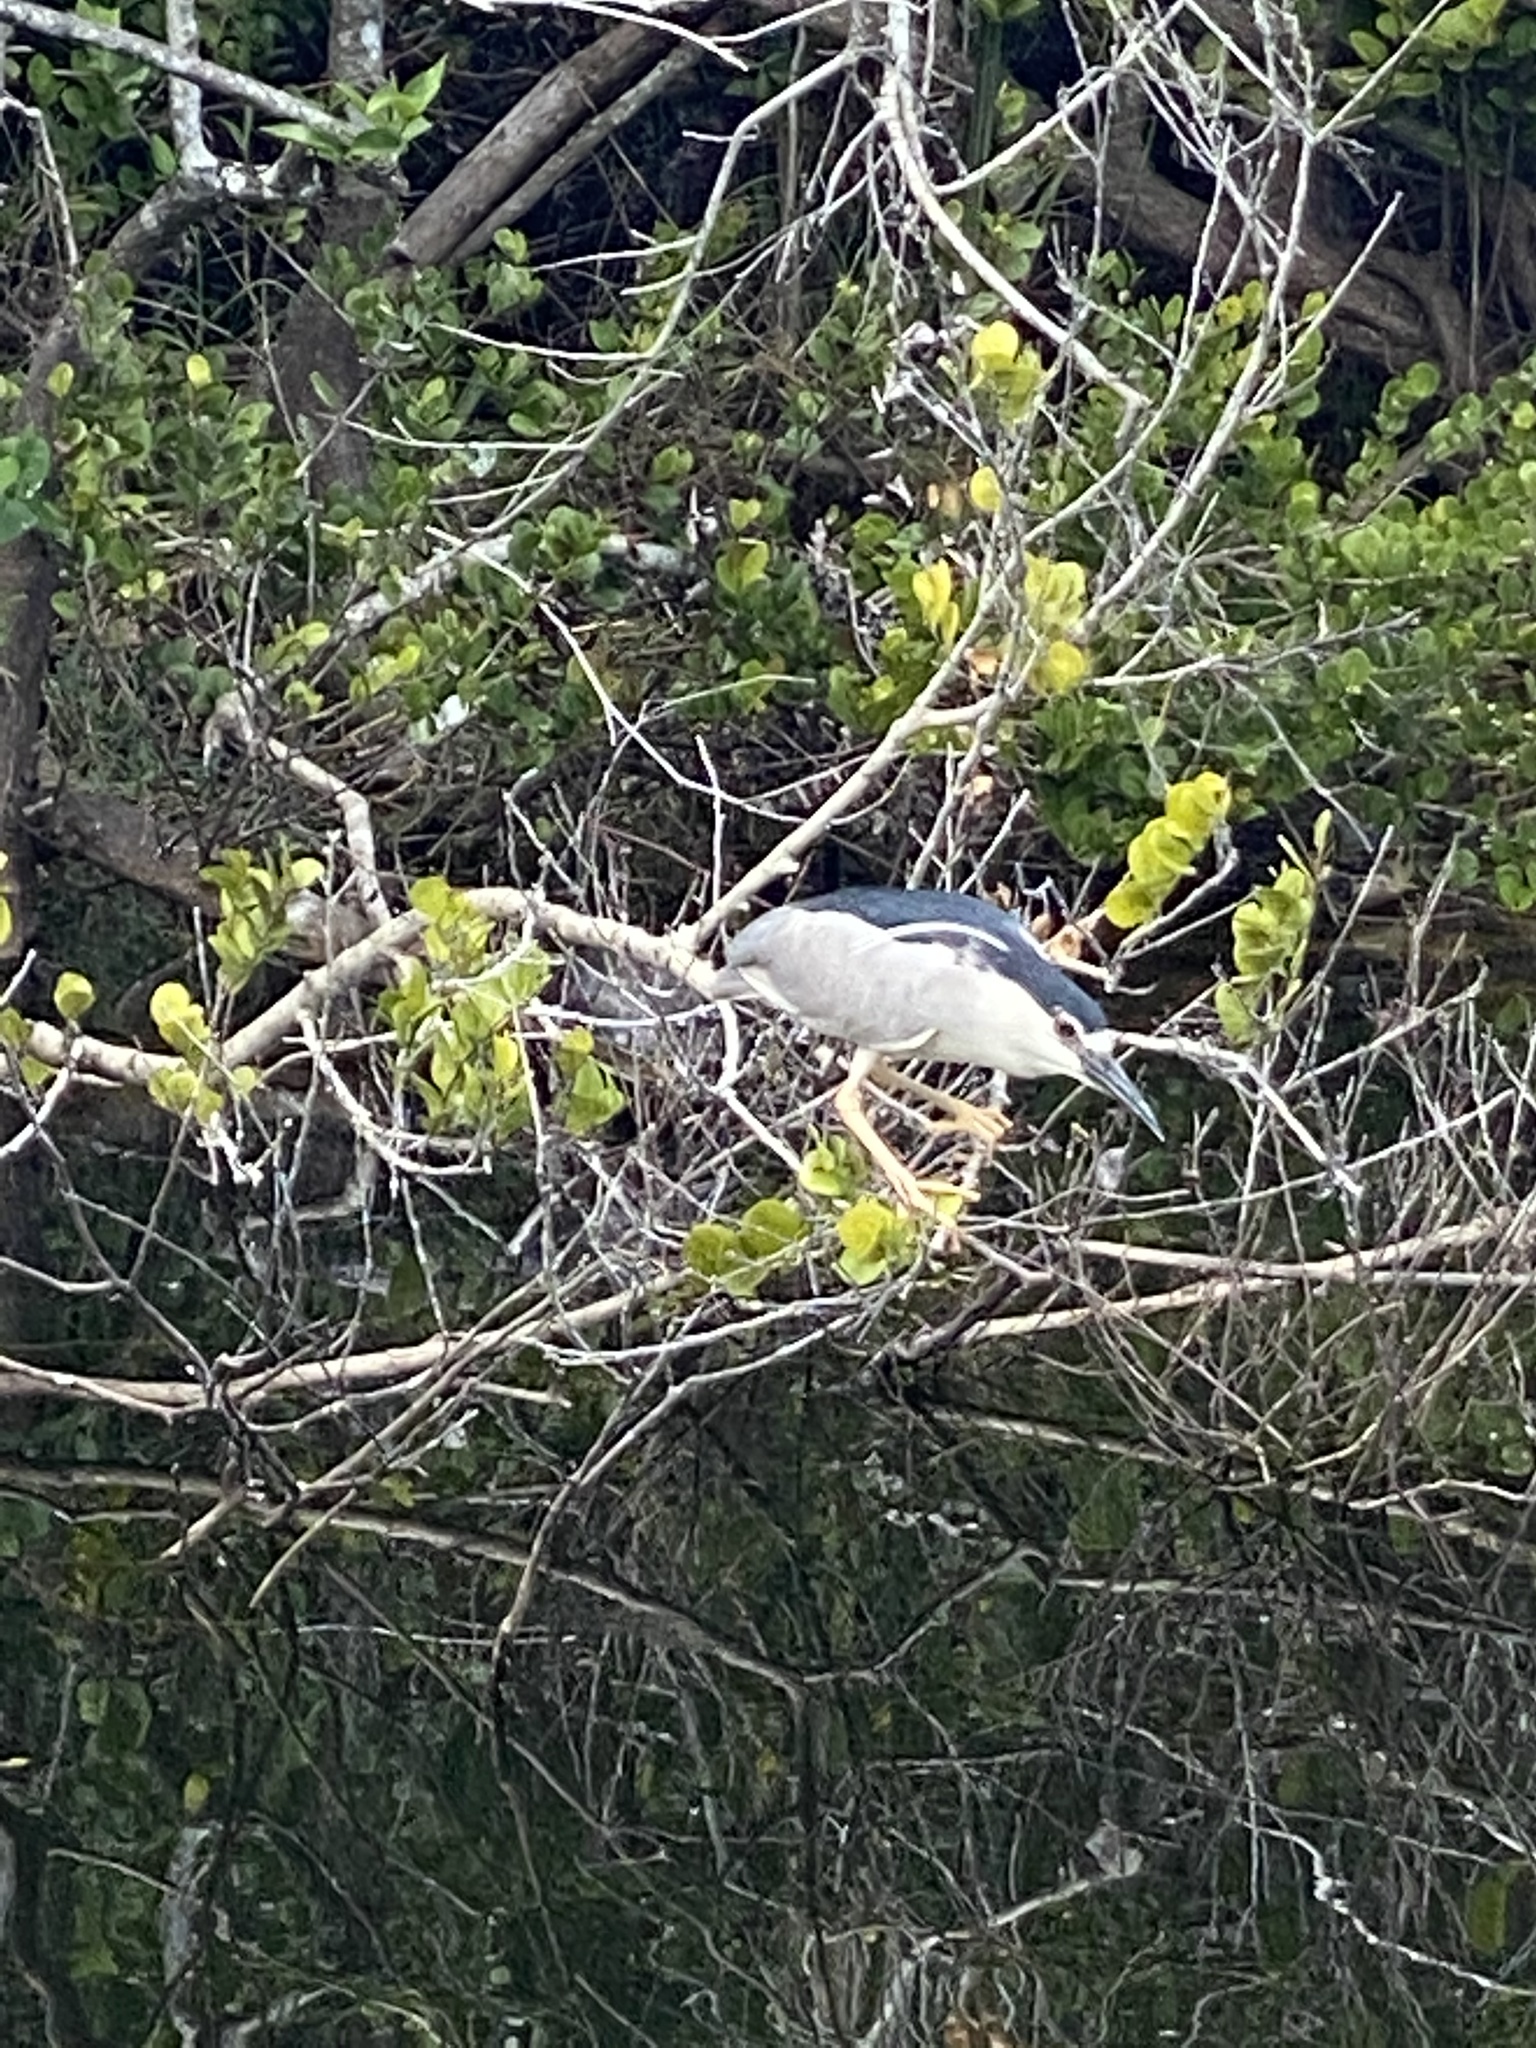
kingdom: Animalia
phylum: Chordata
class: Aves
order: Pelecaniformes
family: Ardeidae
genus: Nycticorax
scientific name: Nycticorax nycticorax
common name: Black-crowned night heron
